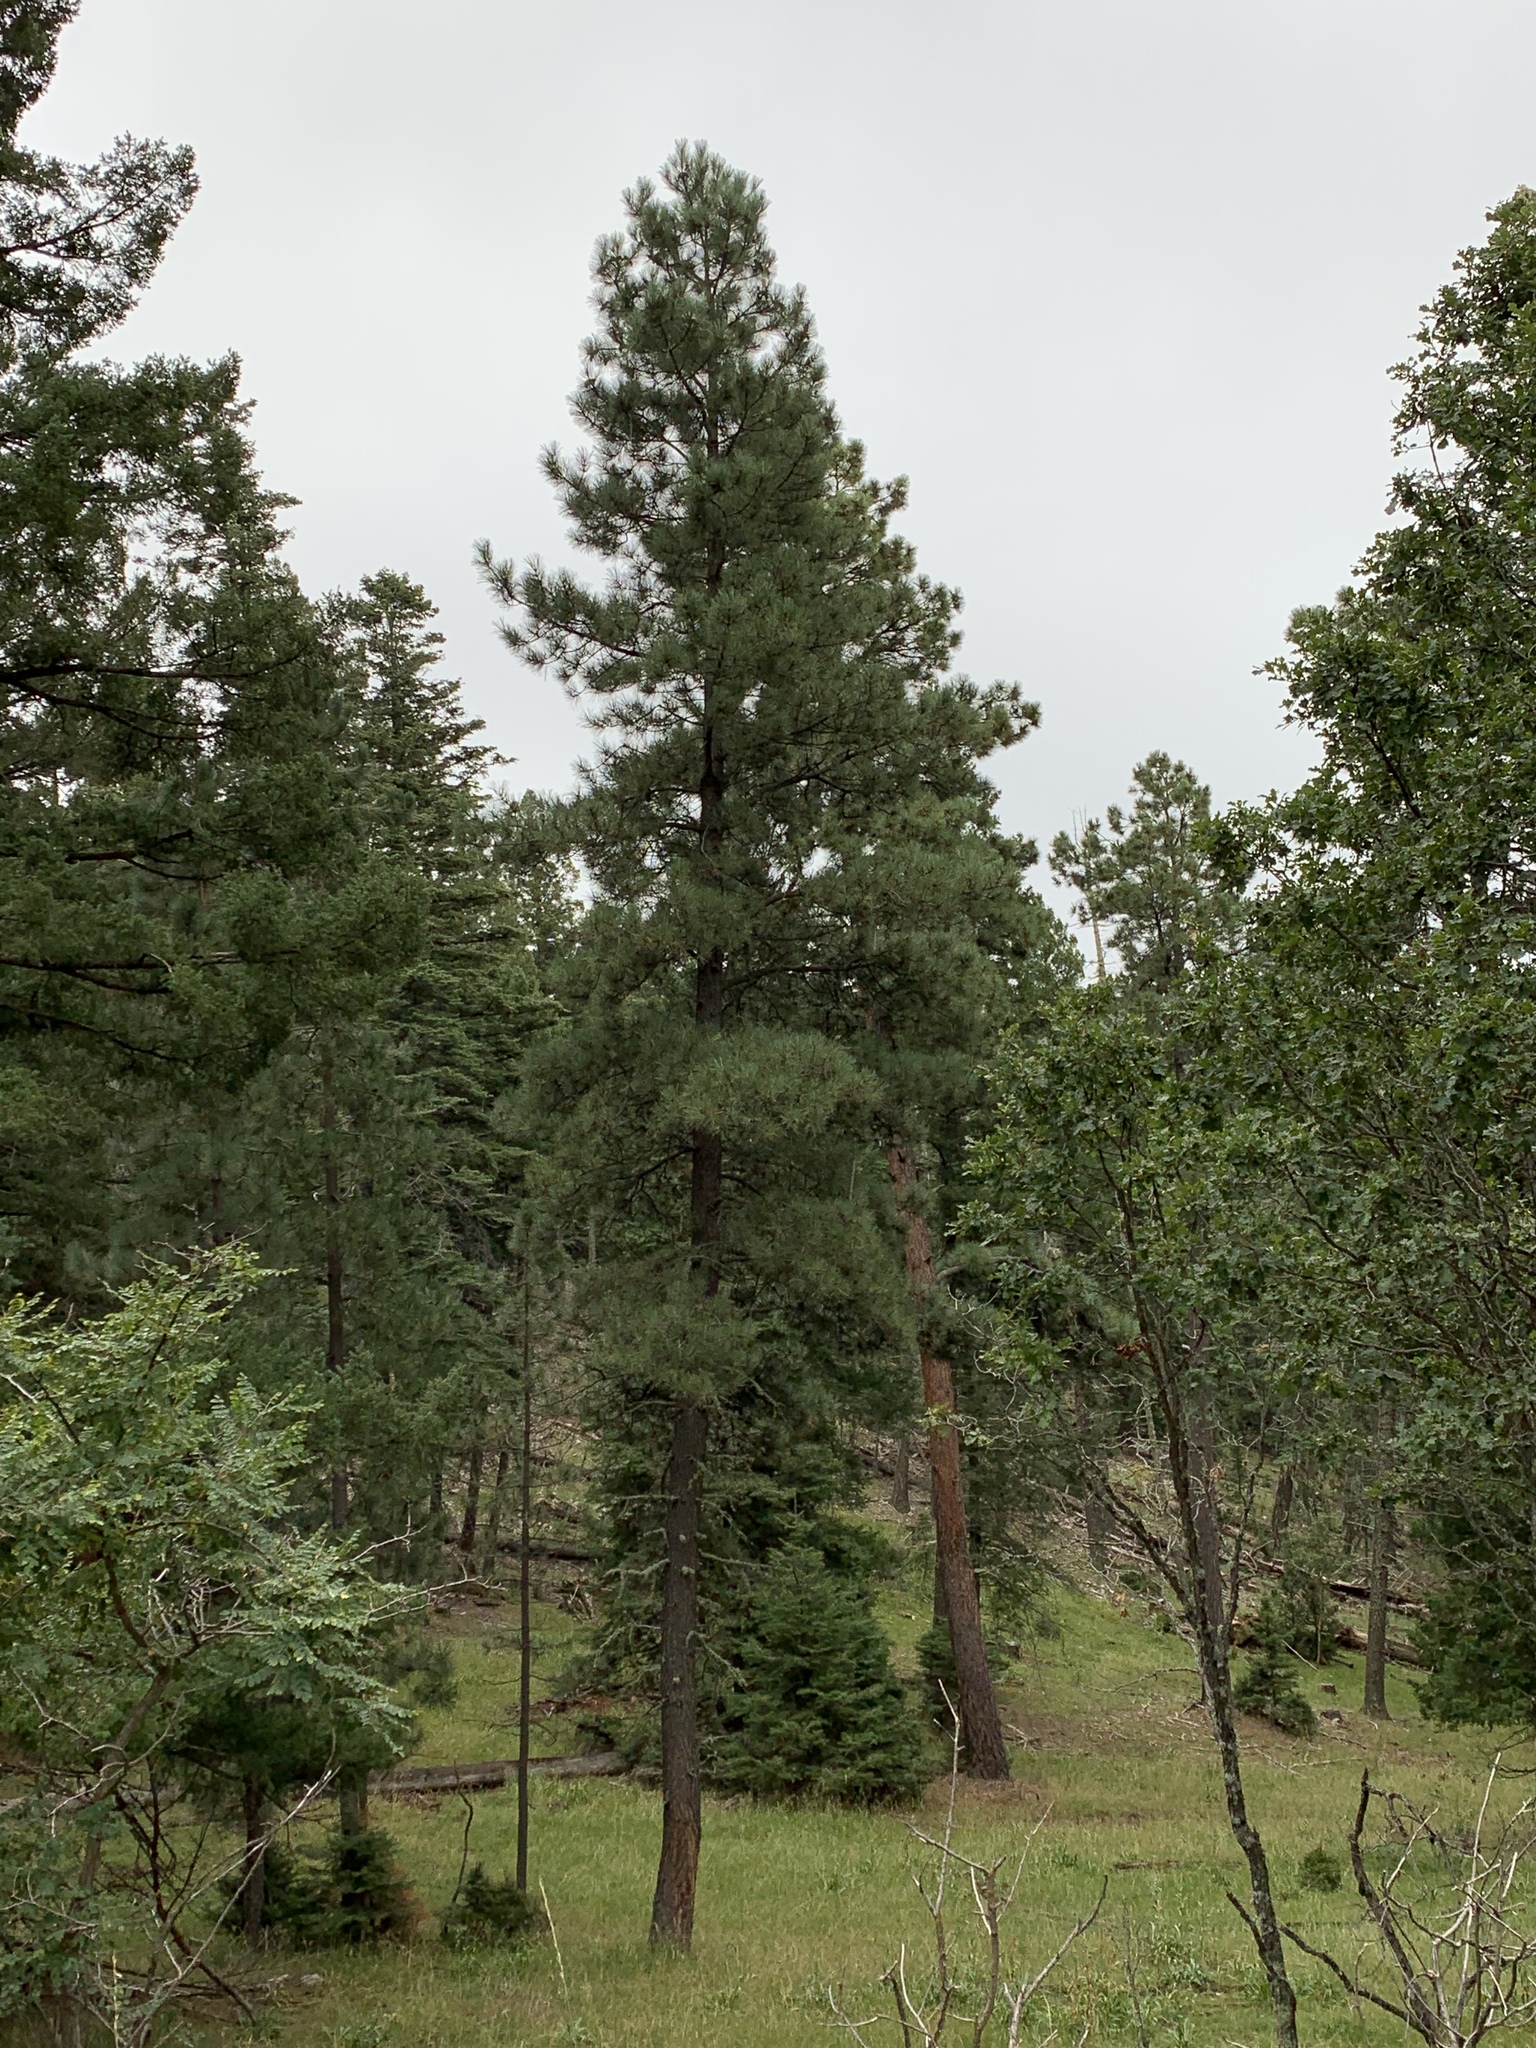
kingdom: Plantae
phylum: Tracheophyta
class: Pinopsida
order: Pinales
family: Pinaceae
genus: Pinus
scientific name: Pinus ponderosa
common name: Western yellow-pine
